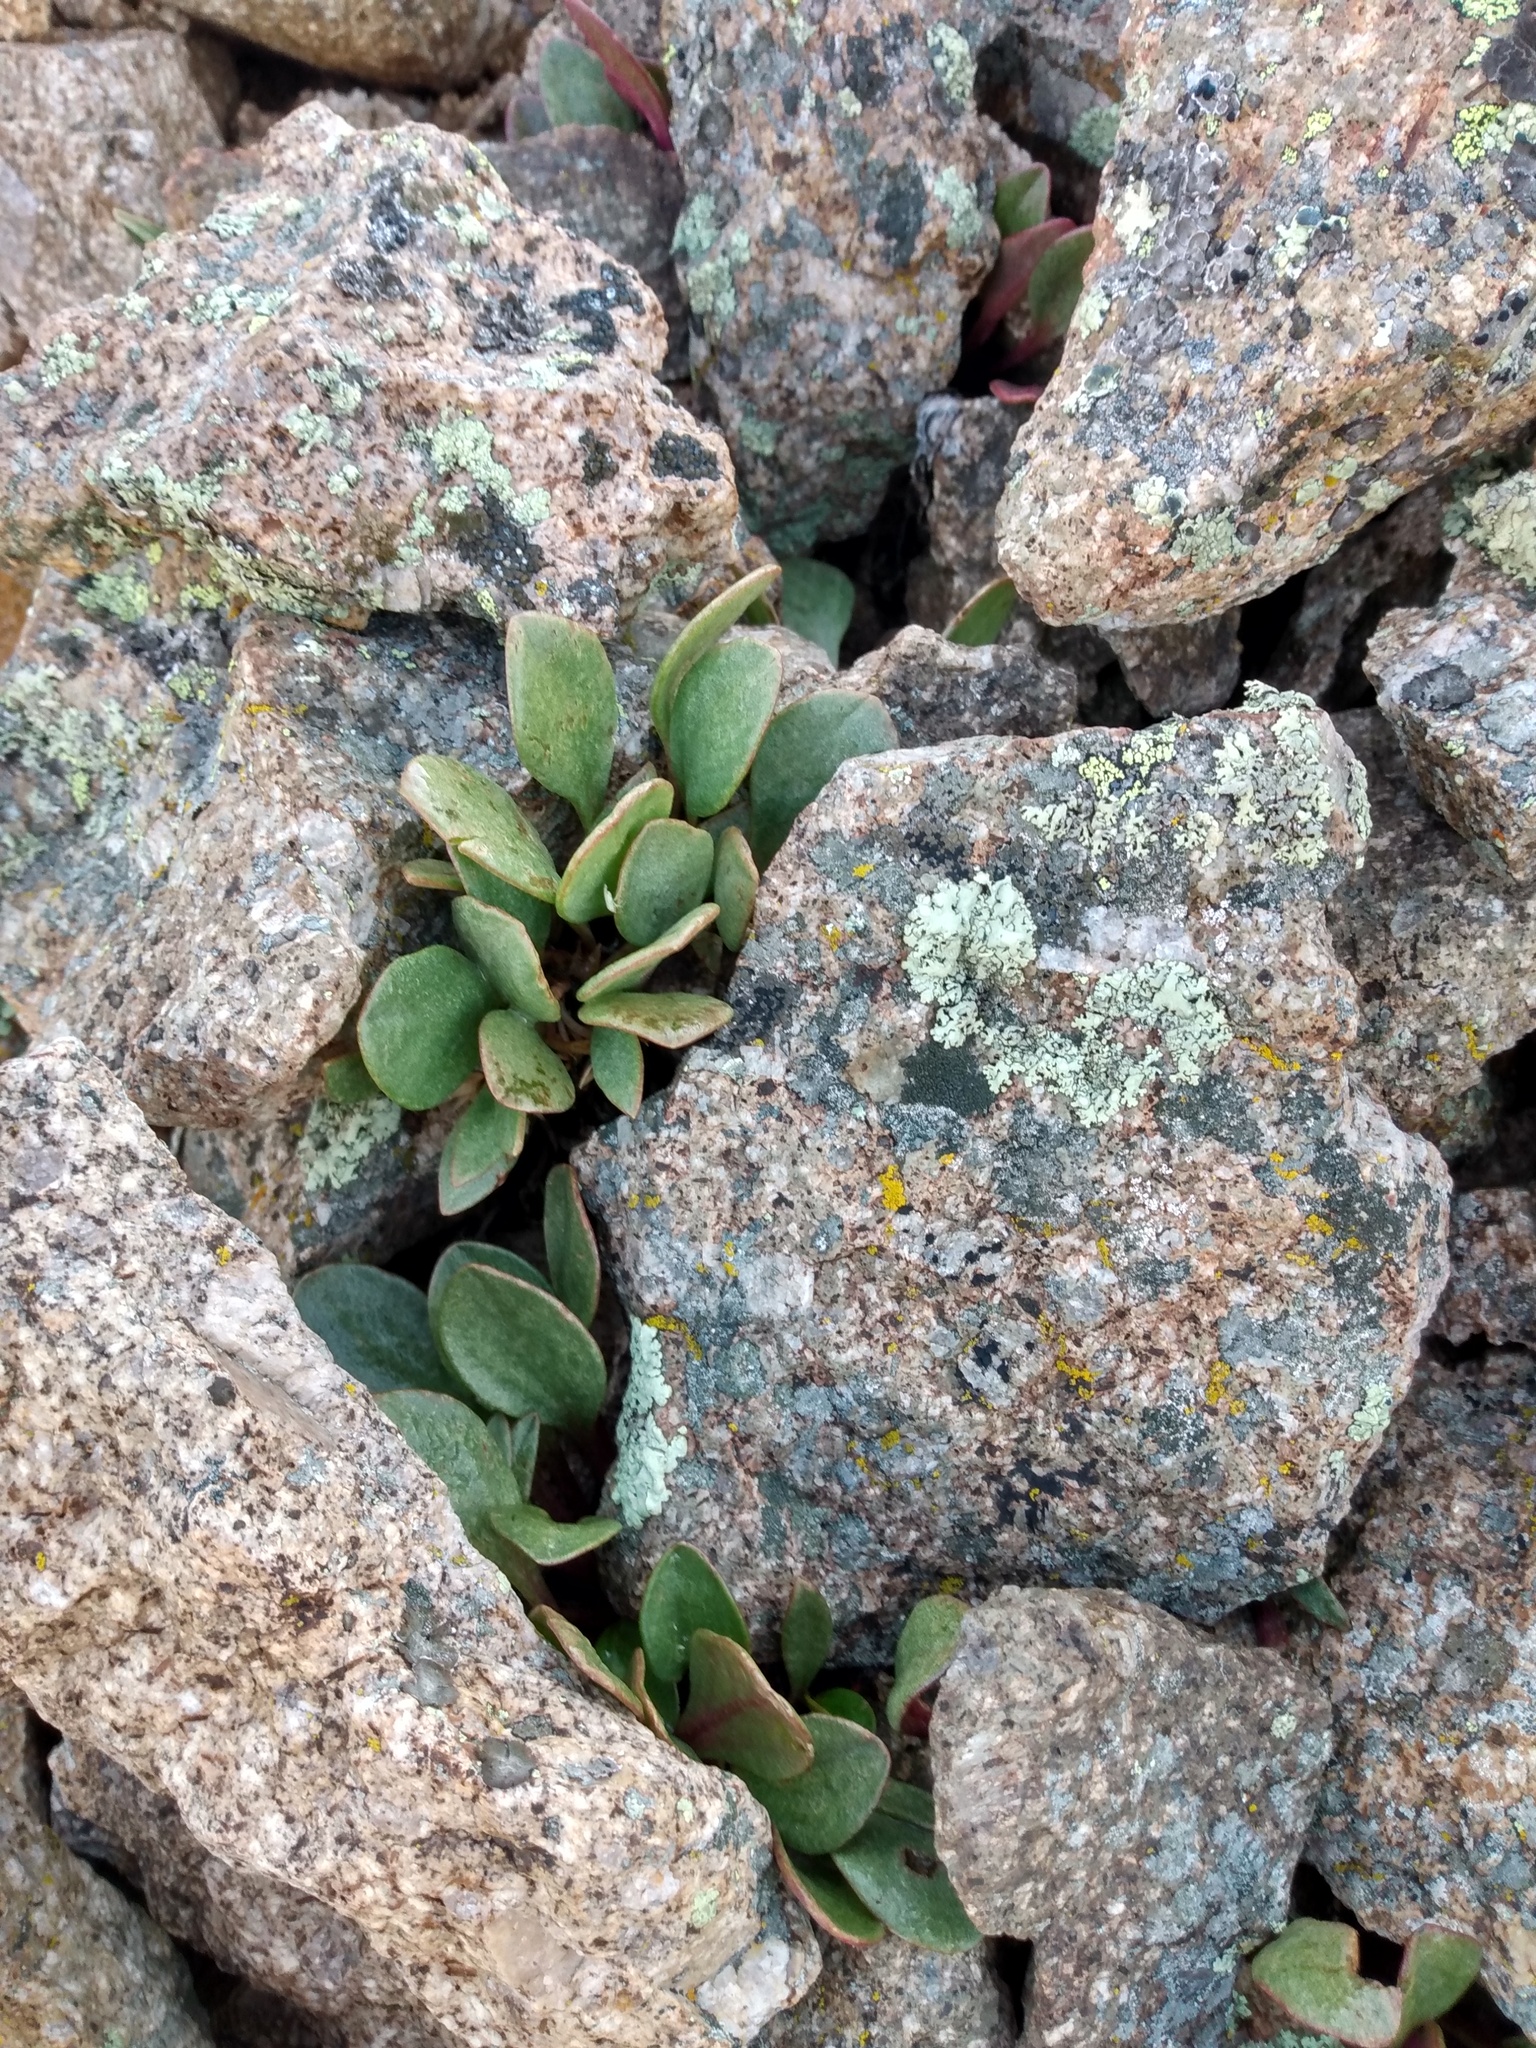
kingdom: Plantae
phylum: Tracheophyta
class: Magnoliopsida
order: Caryophyllales
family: Montiaceae
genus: Claytonia
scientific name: Claytonia megarhiza
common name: Alpine spring beauty
